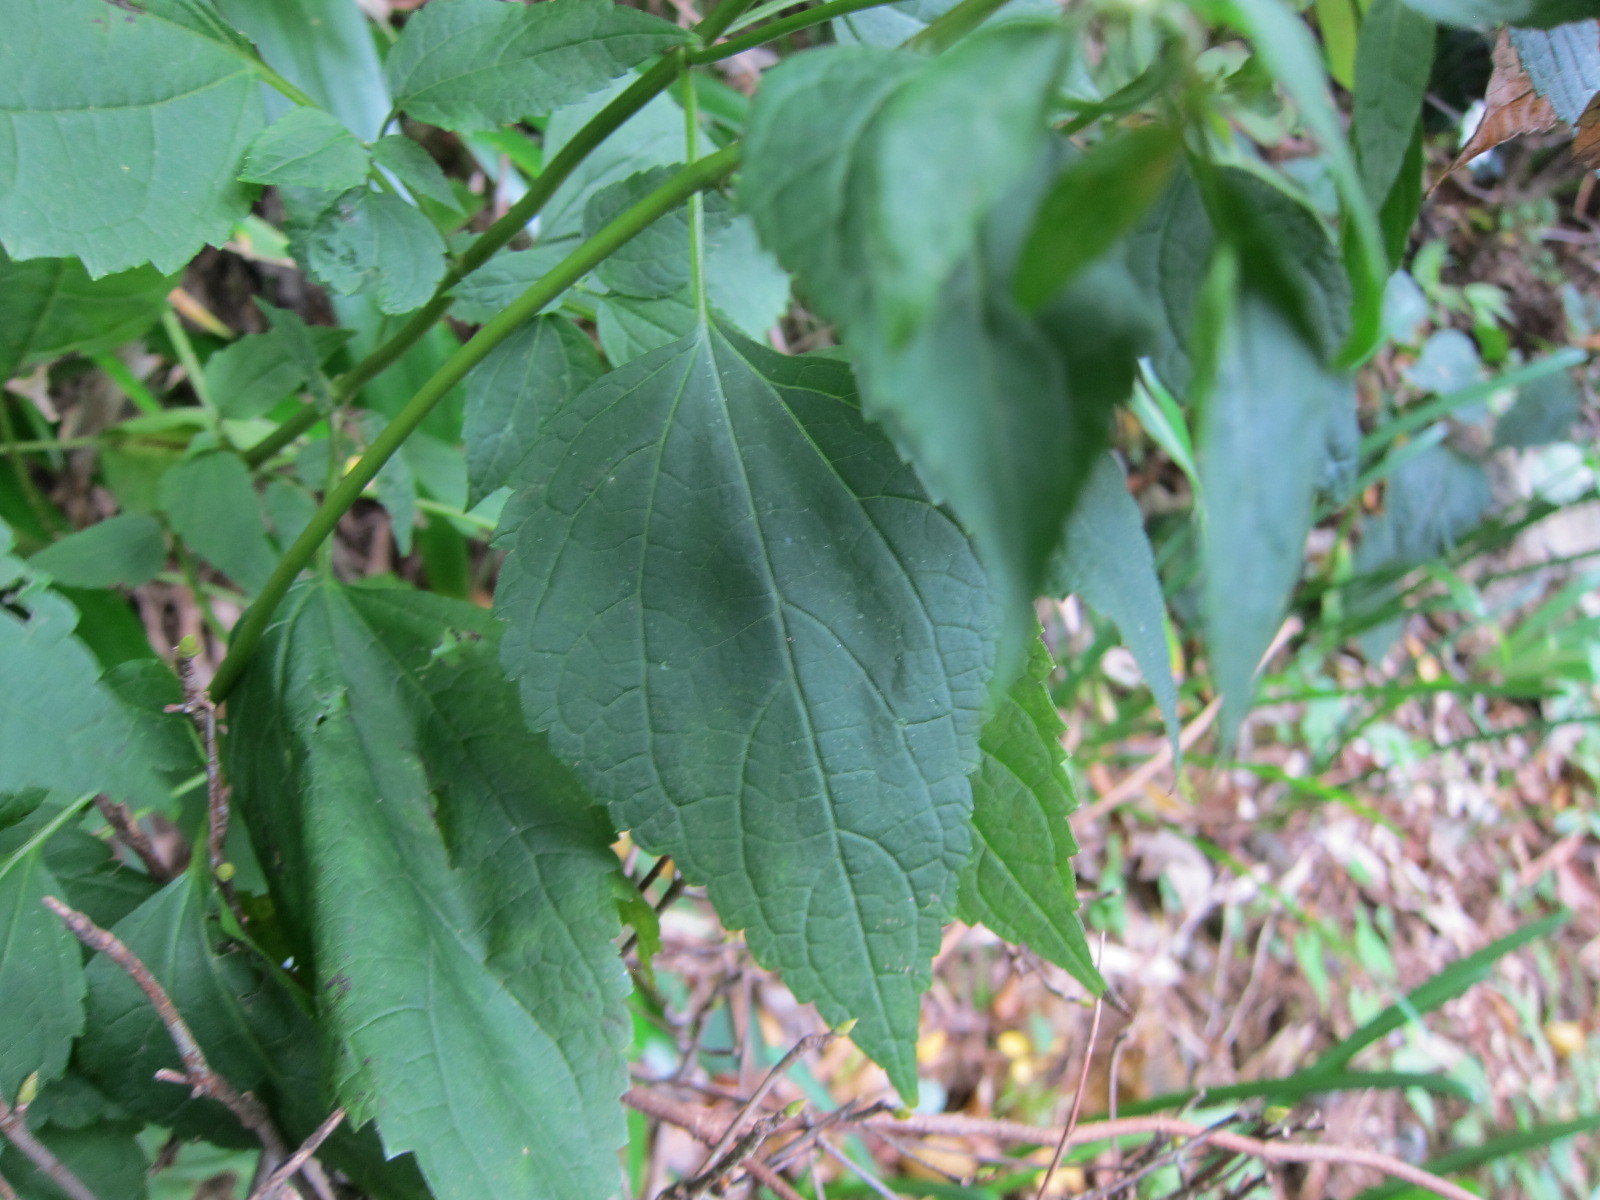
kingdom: Plantae
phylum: Tracheophyta
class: Magnoliopsida
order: Asterales
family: Asteraceae
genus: Ageratina
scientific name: Ageratina altissima
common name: White snakeroot
